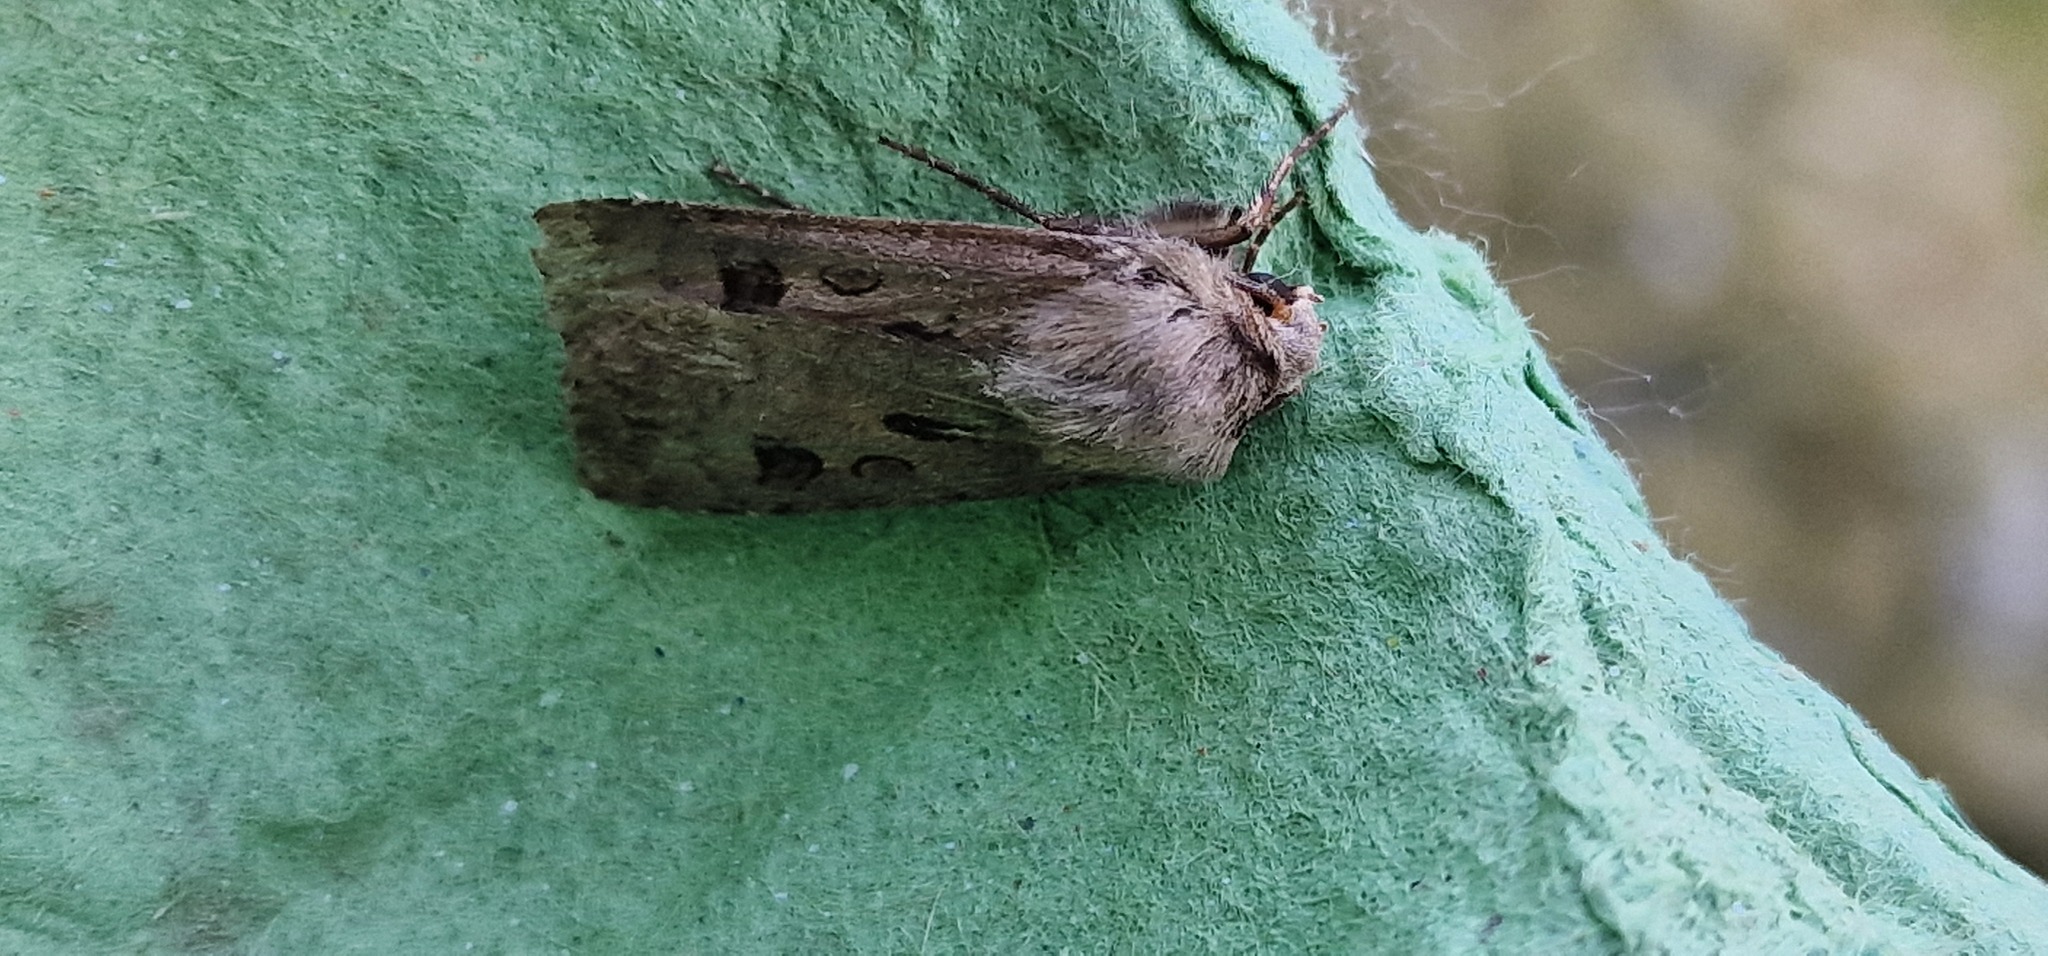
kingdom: Animalia
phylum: Arthropoda
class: Insecta
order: Lepidoptera
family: Noctuidae
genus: Agrotis
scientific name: Agrotis exclamationis
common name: Heart and dart
